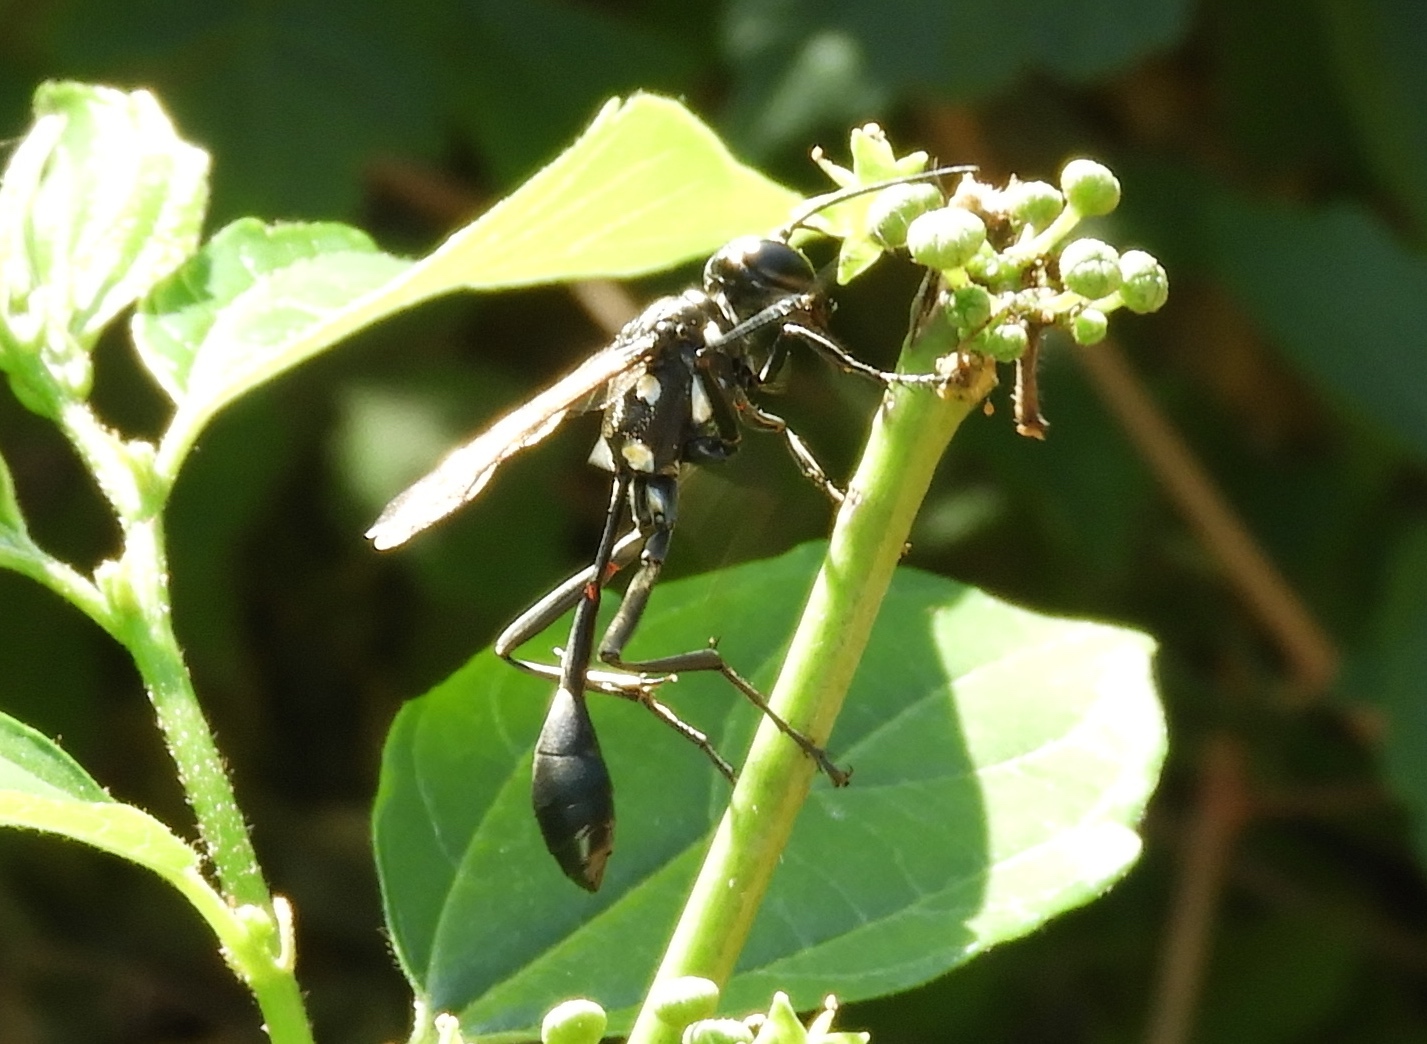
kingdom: Animalia
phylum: Arthropoda
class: Insecta
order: Hymenoptera
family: Sphecidae
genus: Eremnophila
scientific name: Eremnophila
